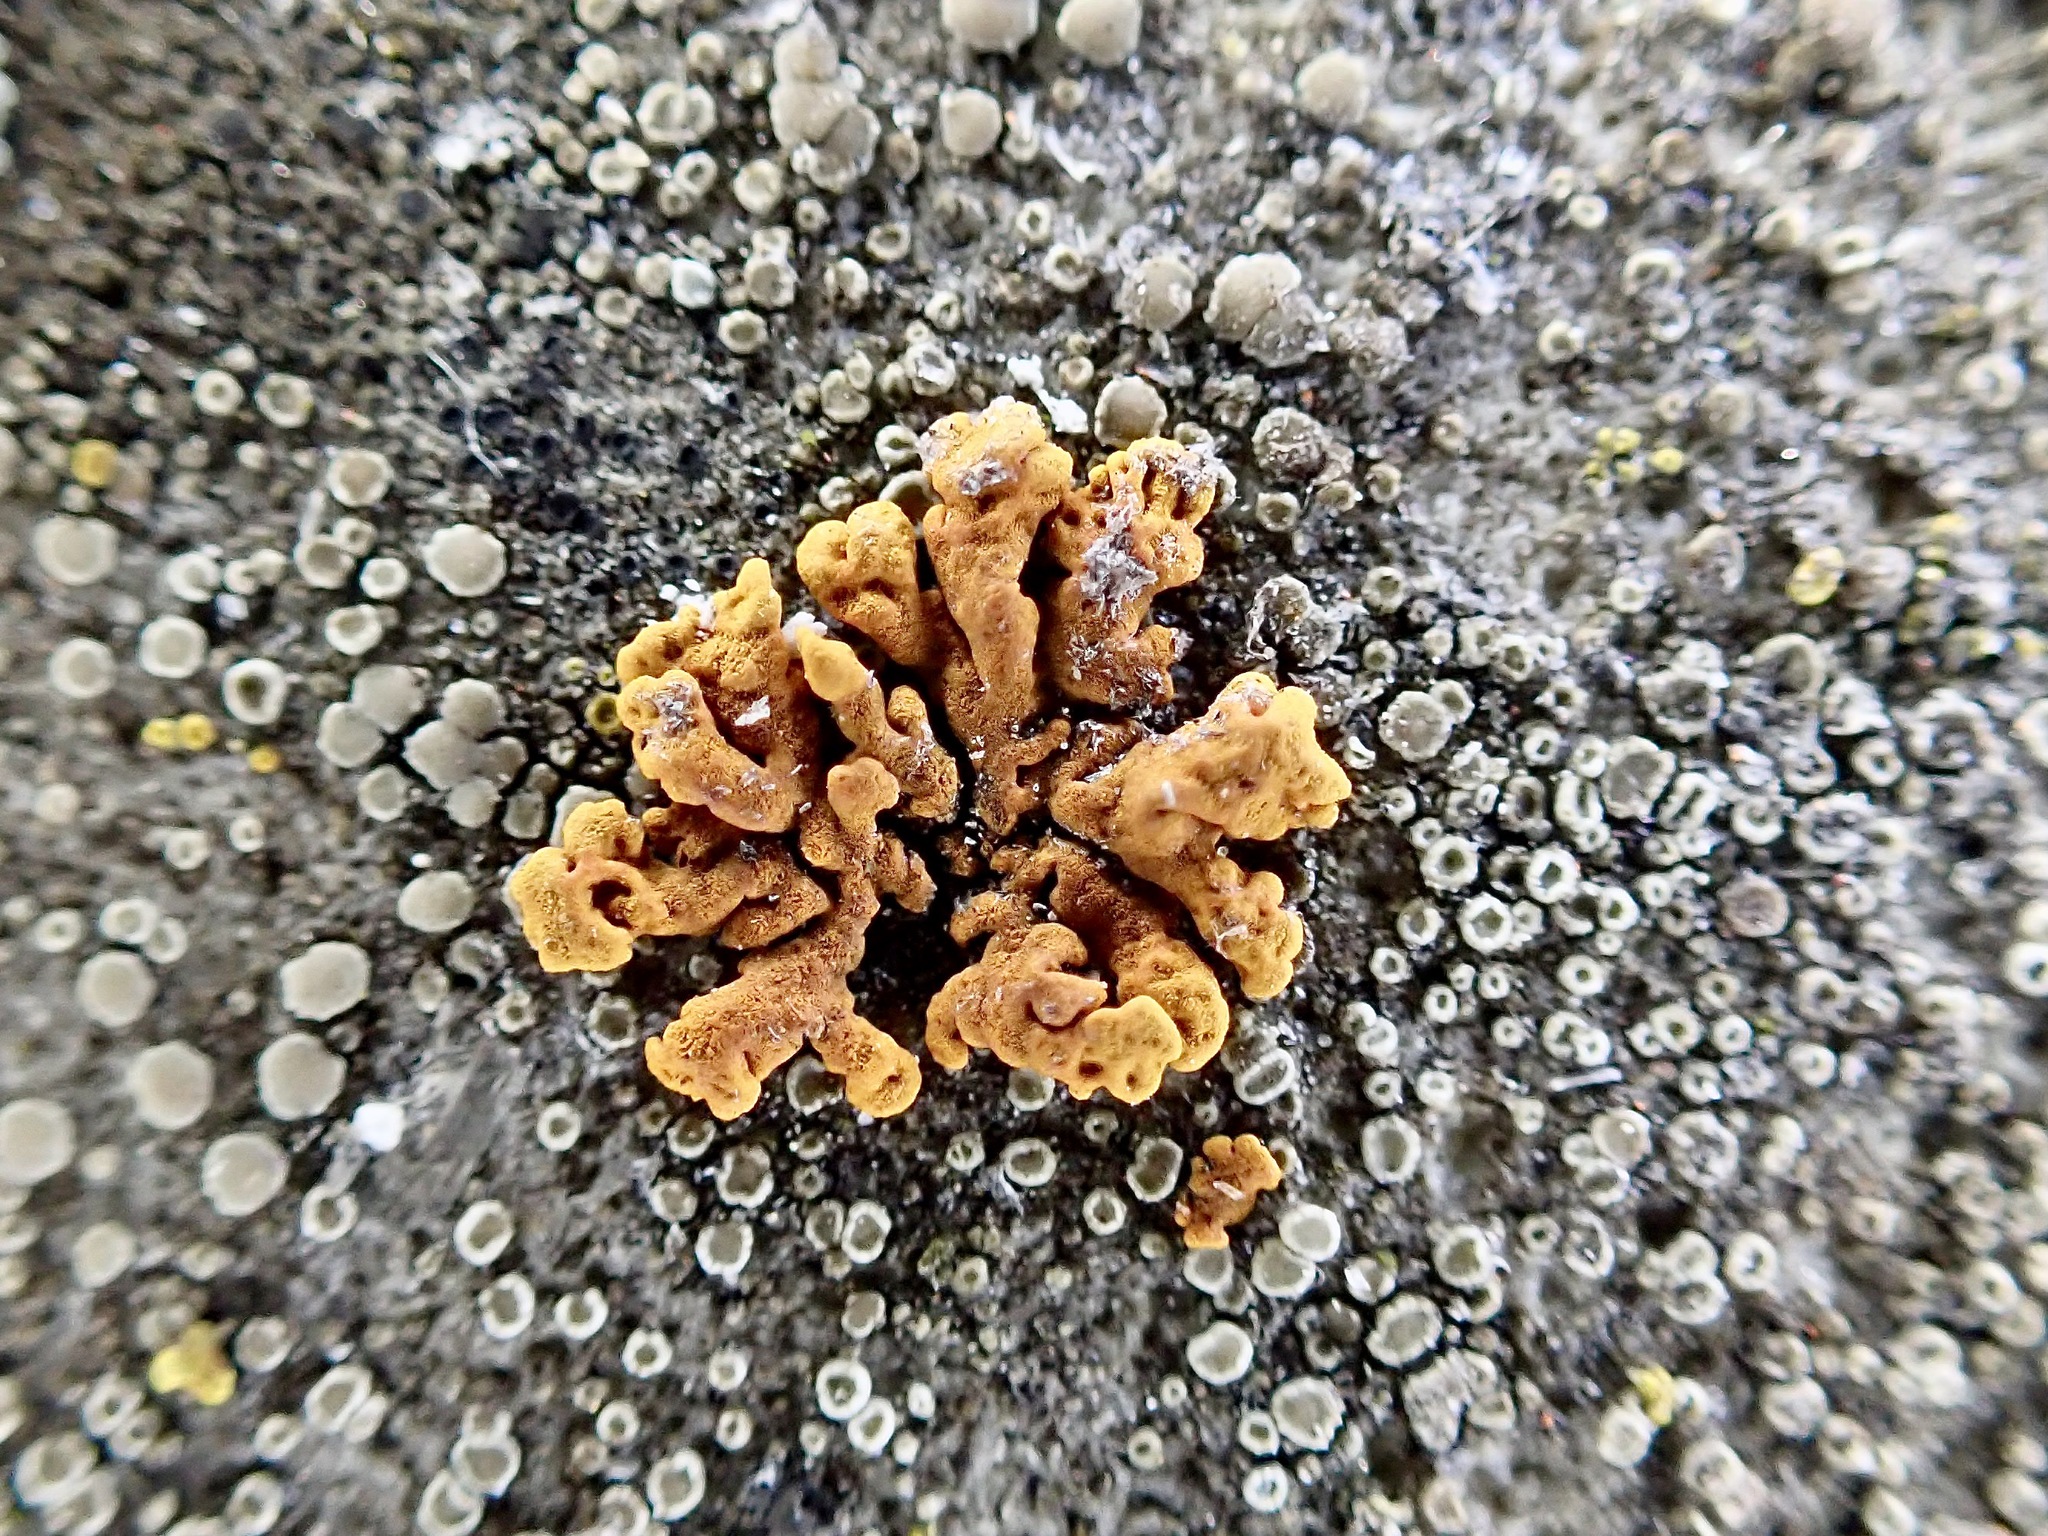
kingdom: Fungi
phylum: Ascomycota
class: Lecanoromycetes
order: Teloschistales
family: Teloschistaceae
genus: Xanthoria
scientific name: Xanthoria elegans
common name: Elegant sunburst lichen
